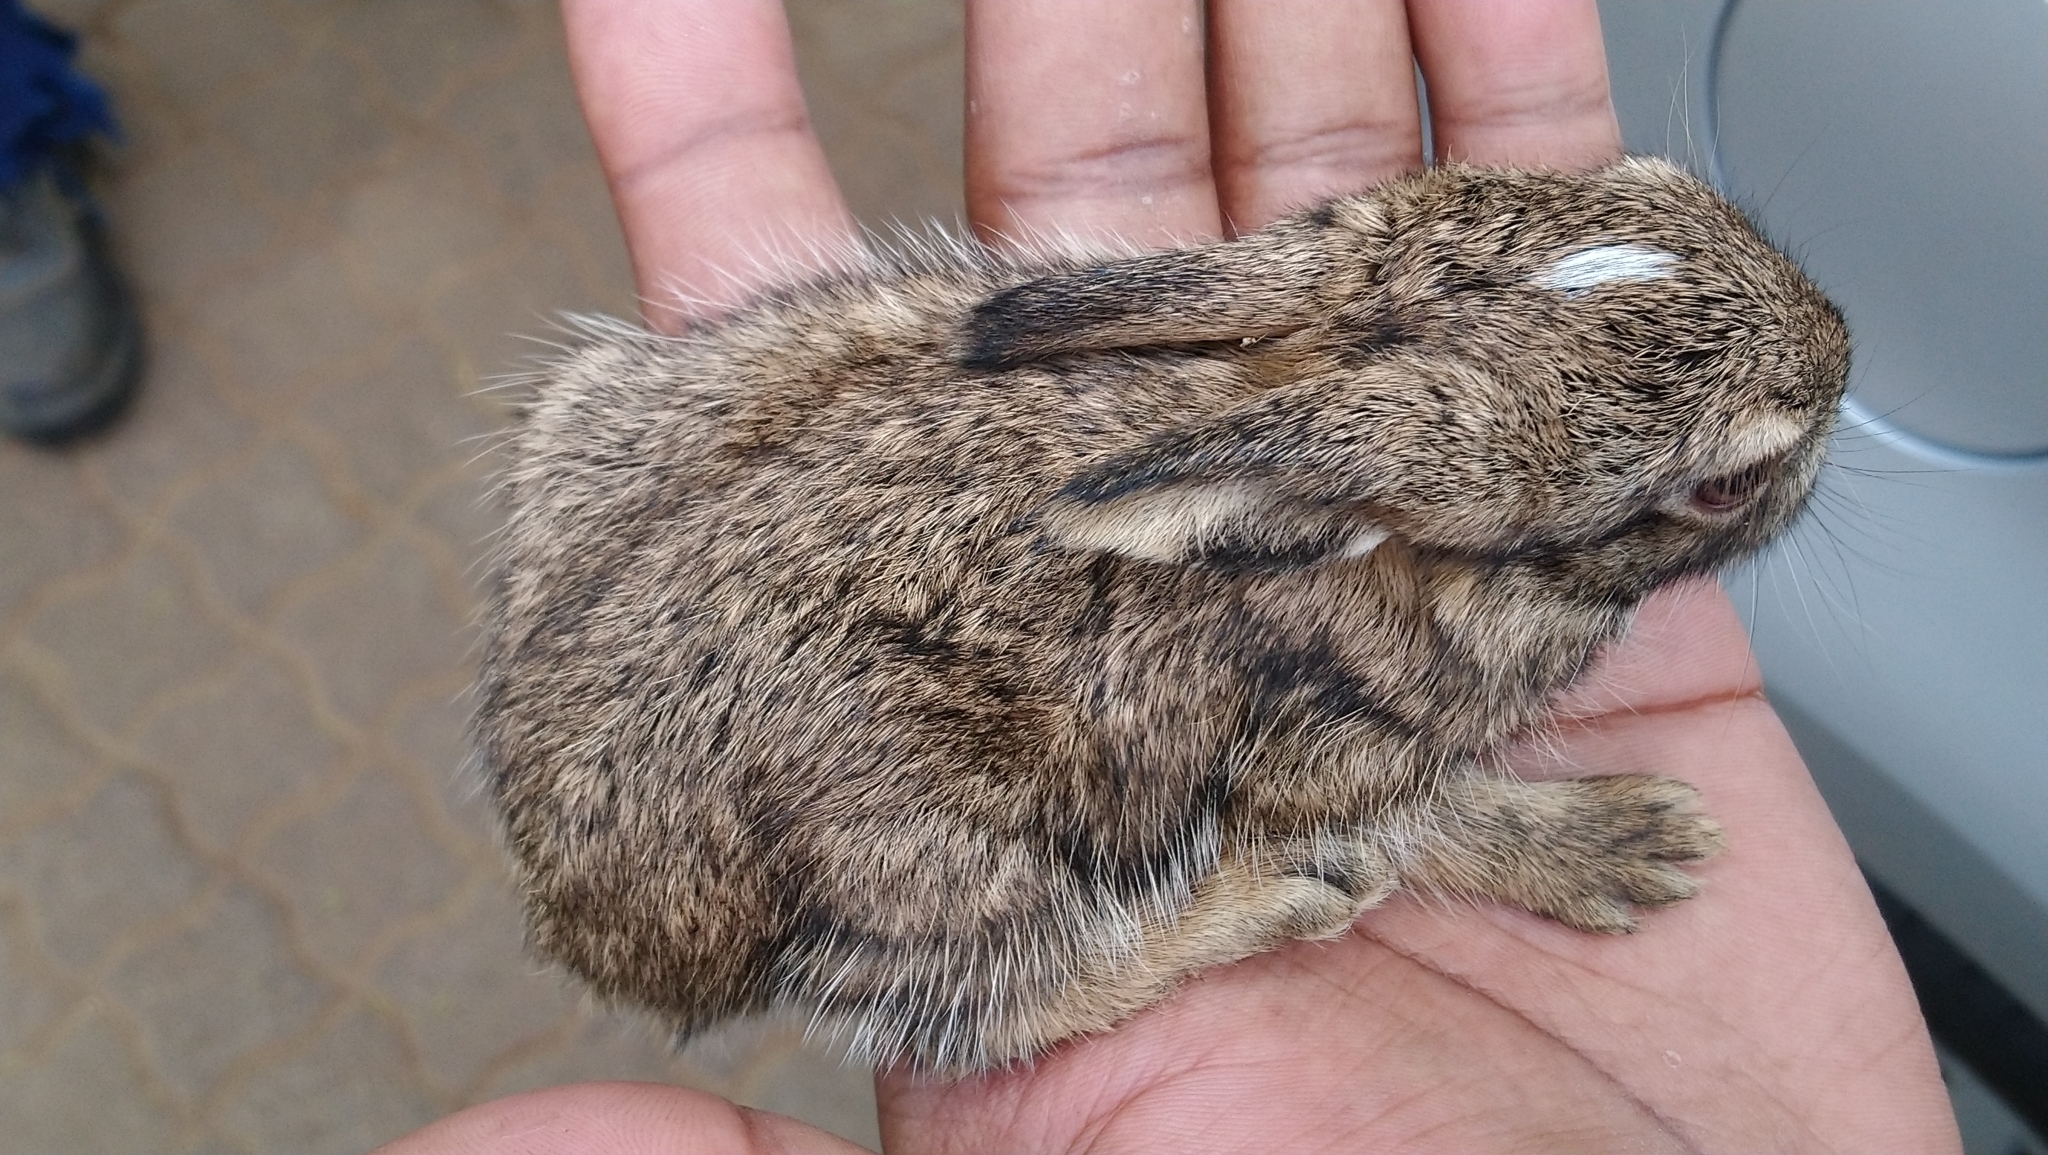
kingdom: Animalia
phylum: Chordata
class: Mammalia
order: Lagomorpha
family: Leporidae
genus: Lepus
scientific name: Lepus saxatilis
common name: Scrub hare
